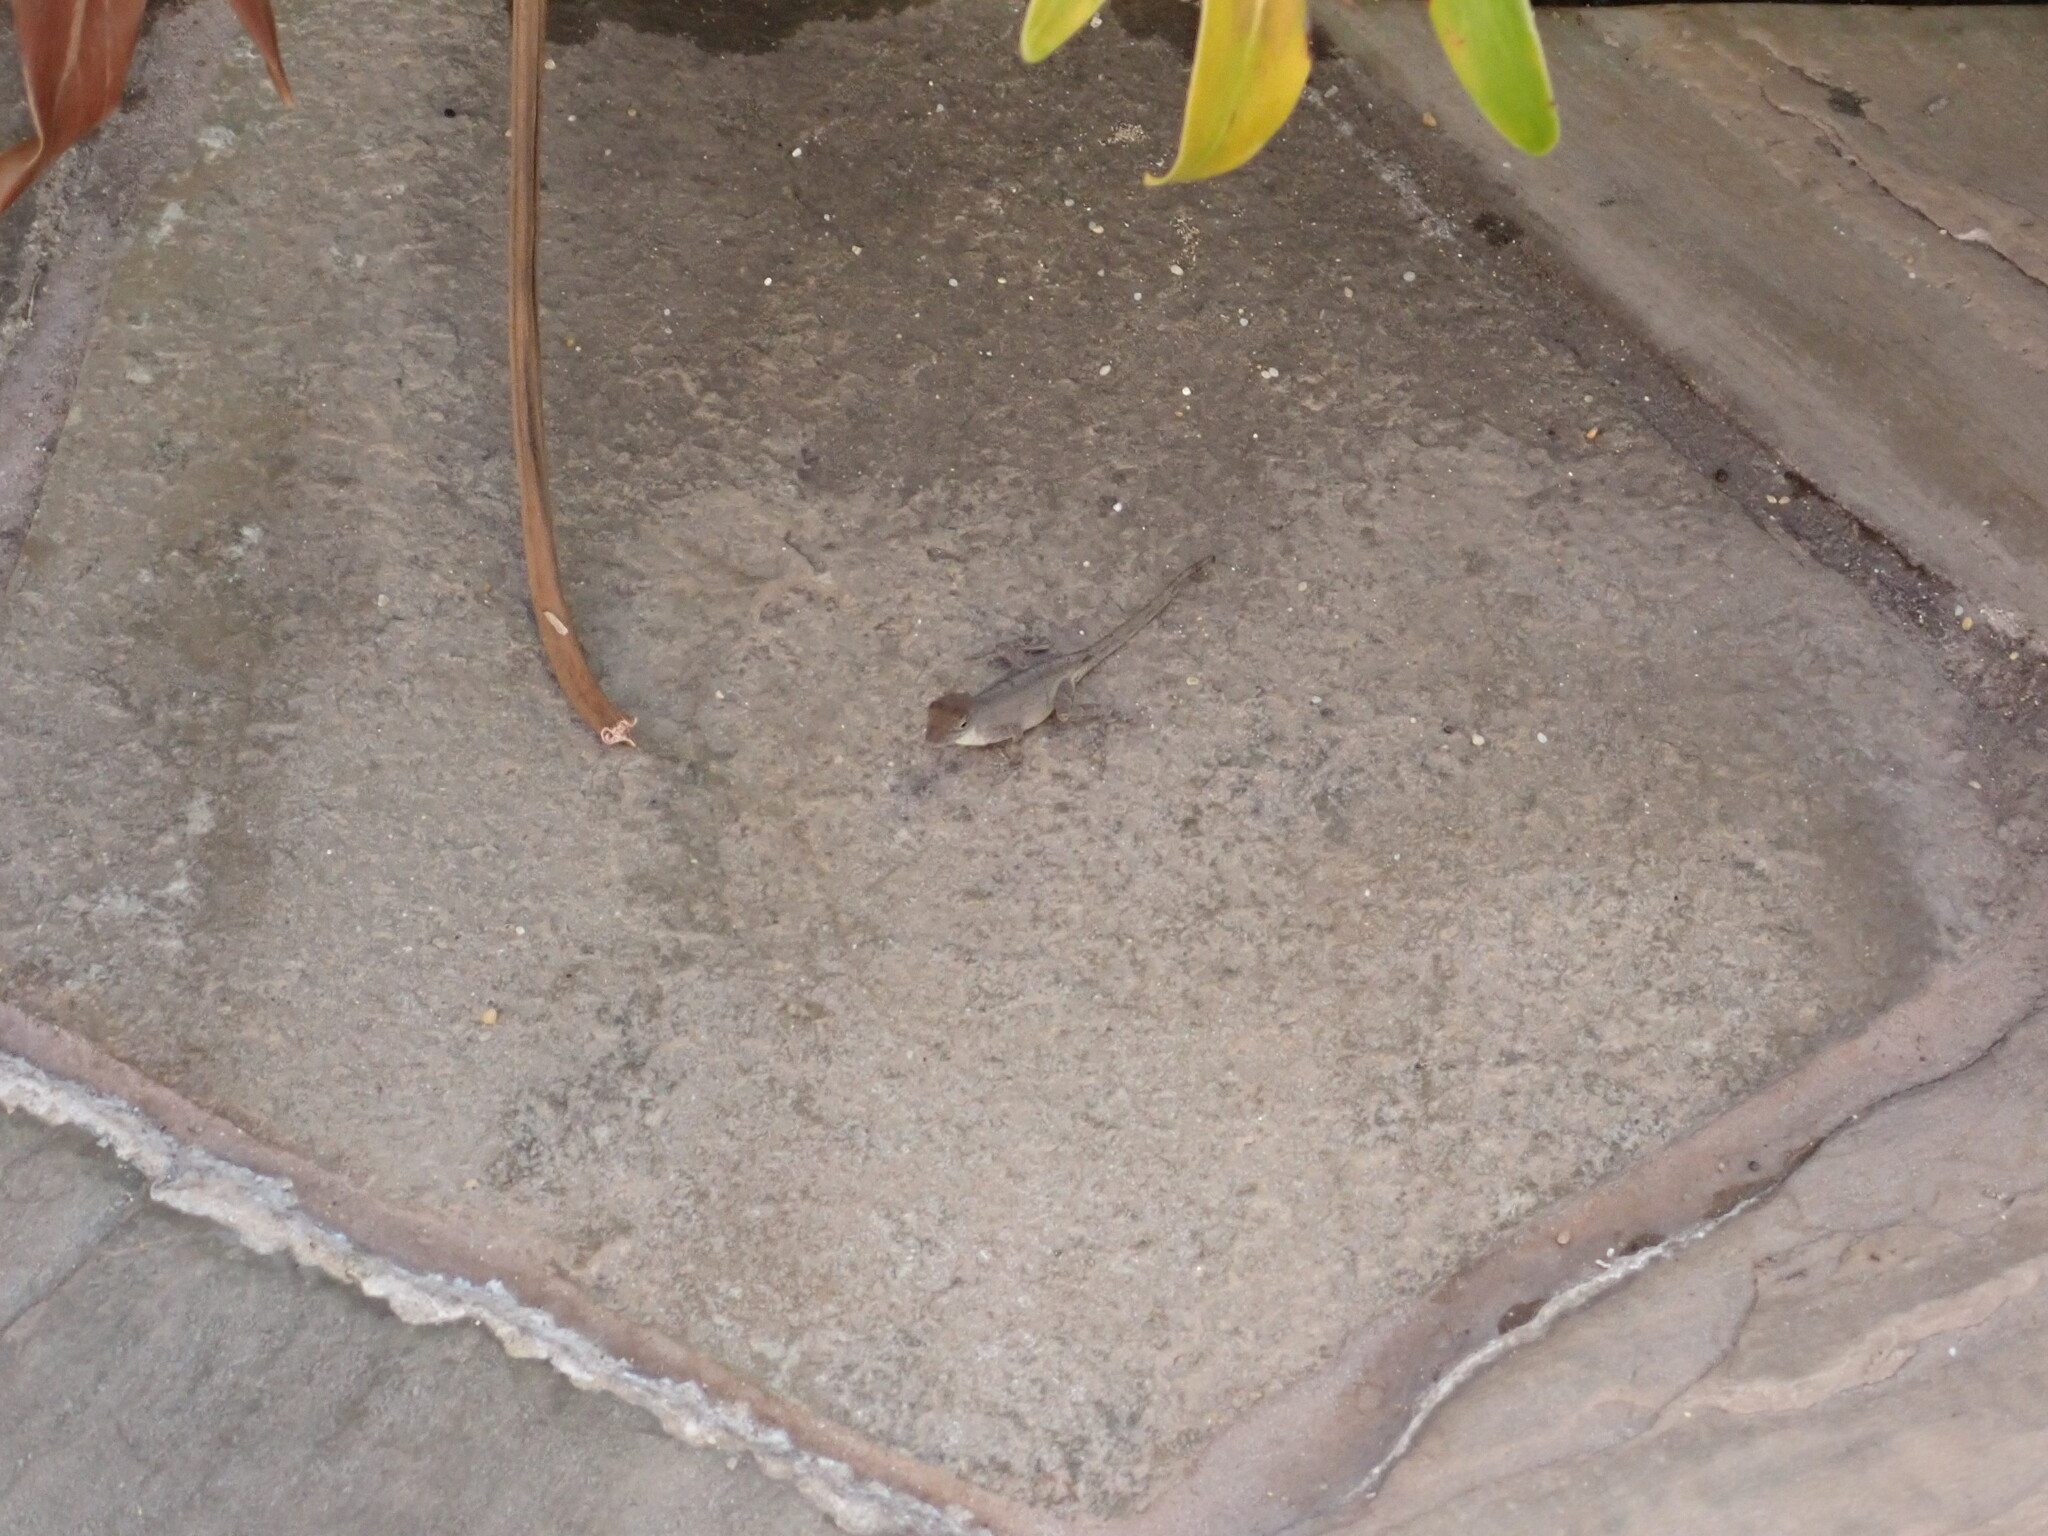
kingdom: Animalia
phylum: Chordata
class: Squamata
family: Dactyloidae
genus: Anolis
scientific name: Anolis sagrei
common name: Brown anole
